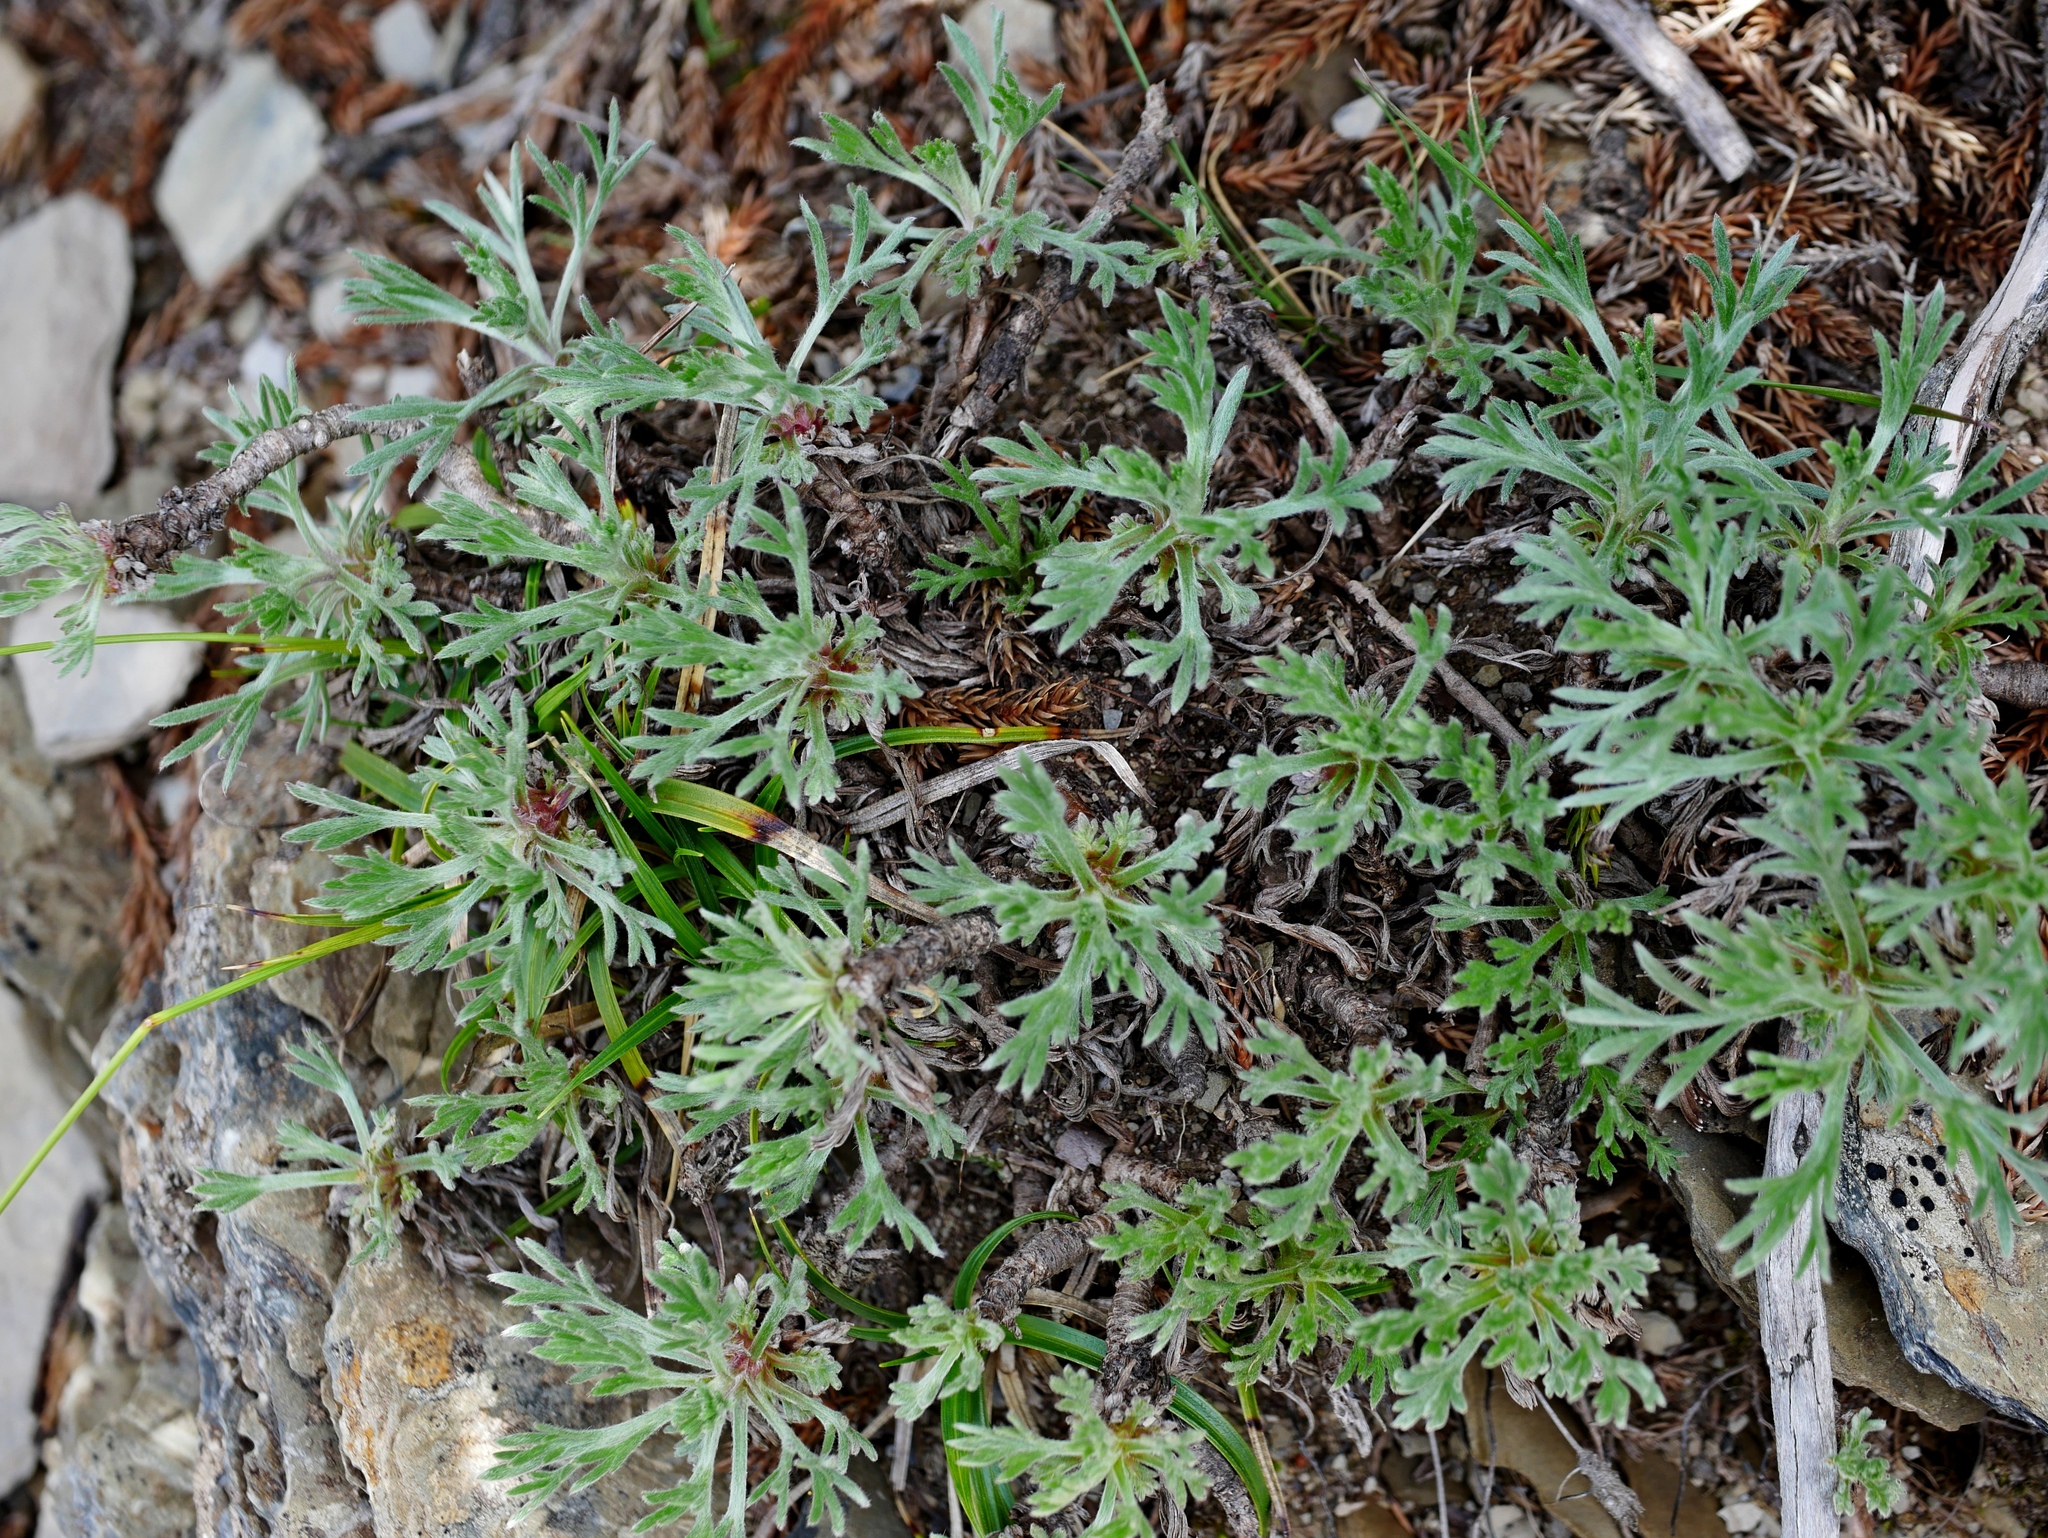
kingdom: Plantae
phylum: Tracheophyta
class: Magnoliopsida
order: Asterales
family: Asteraceae
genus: Artemisia
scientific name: Artemisia kawakamii
